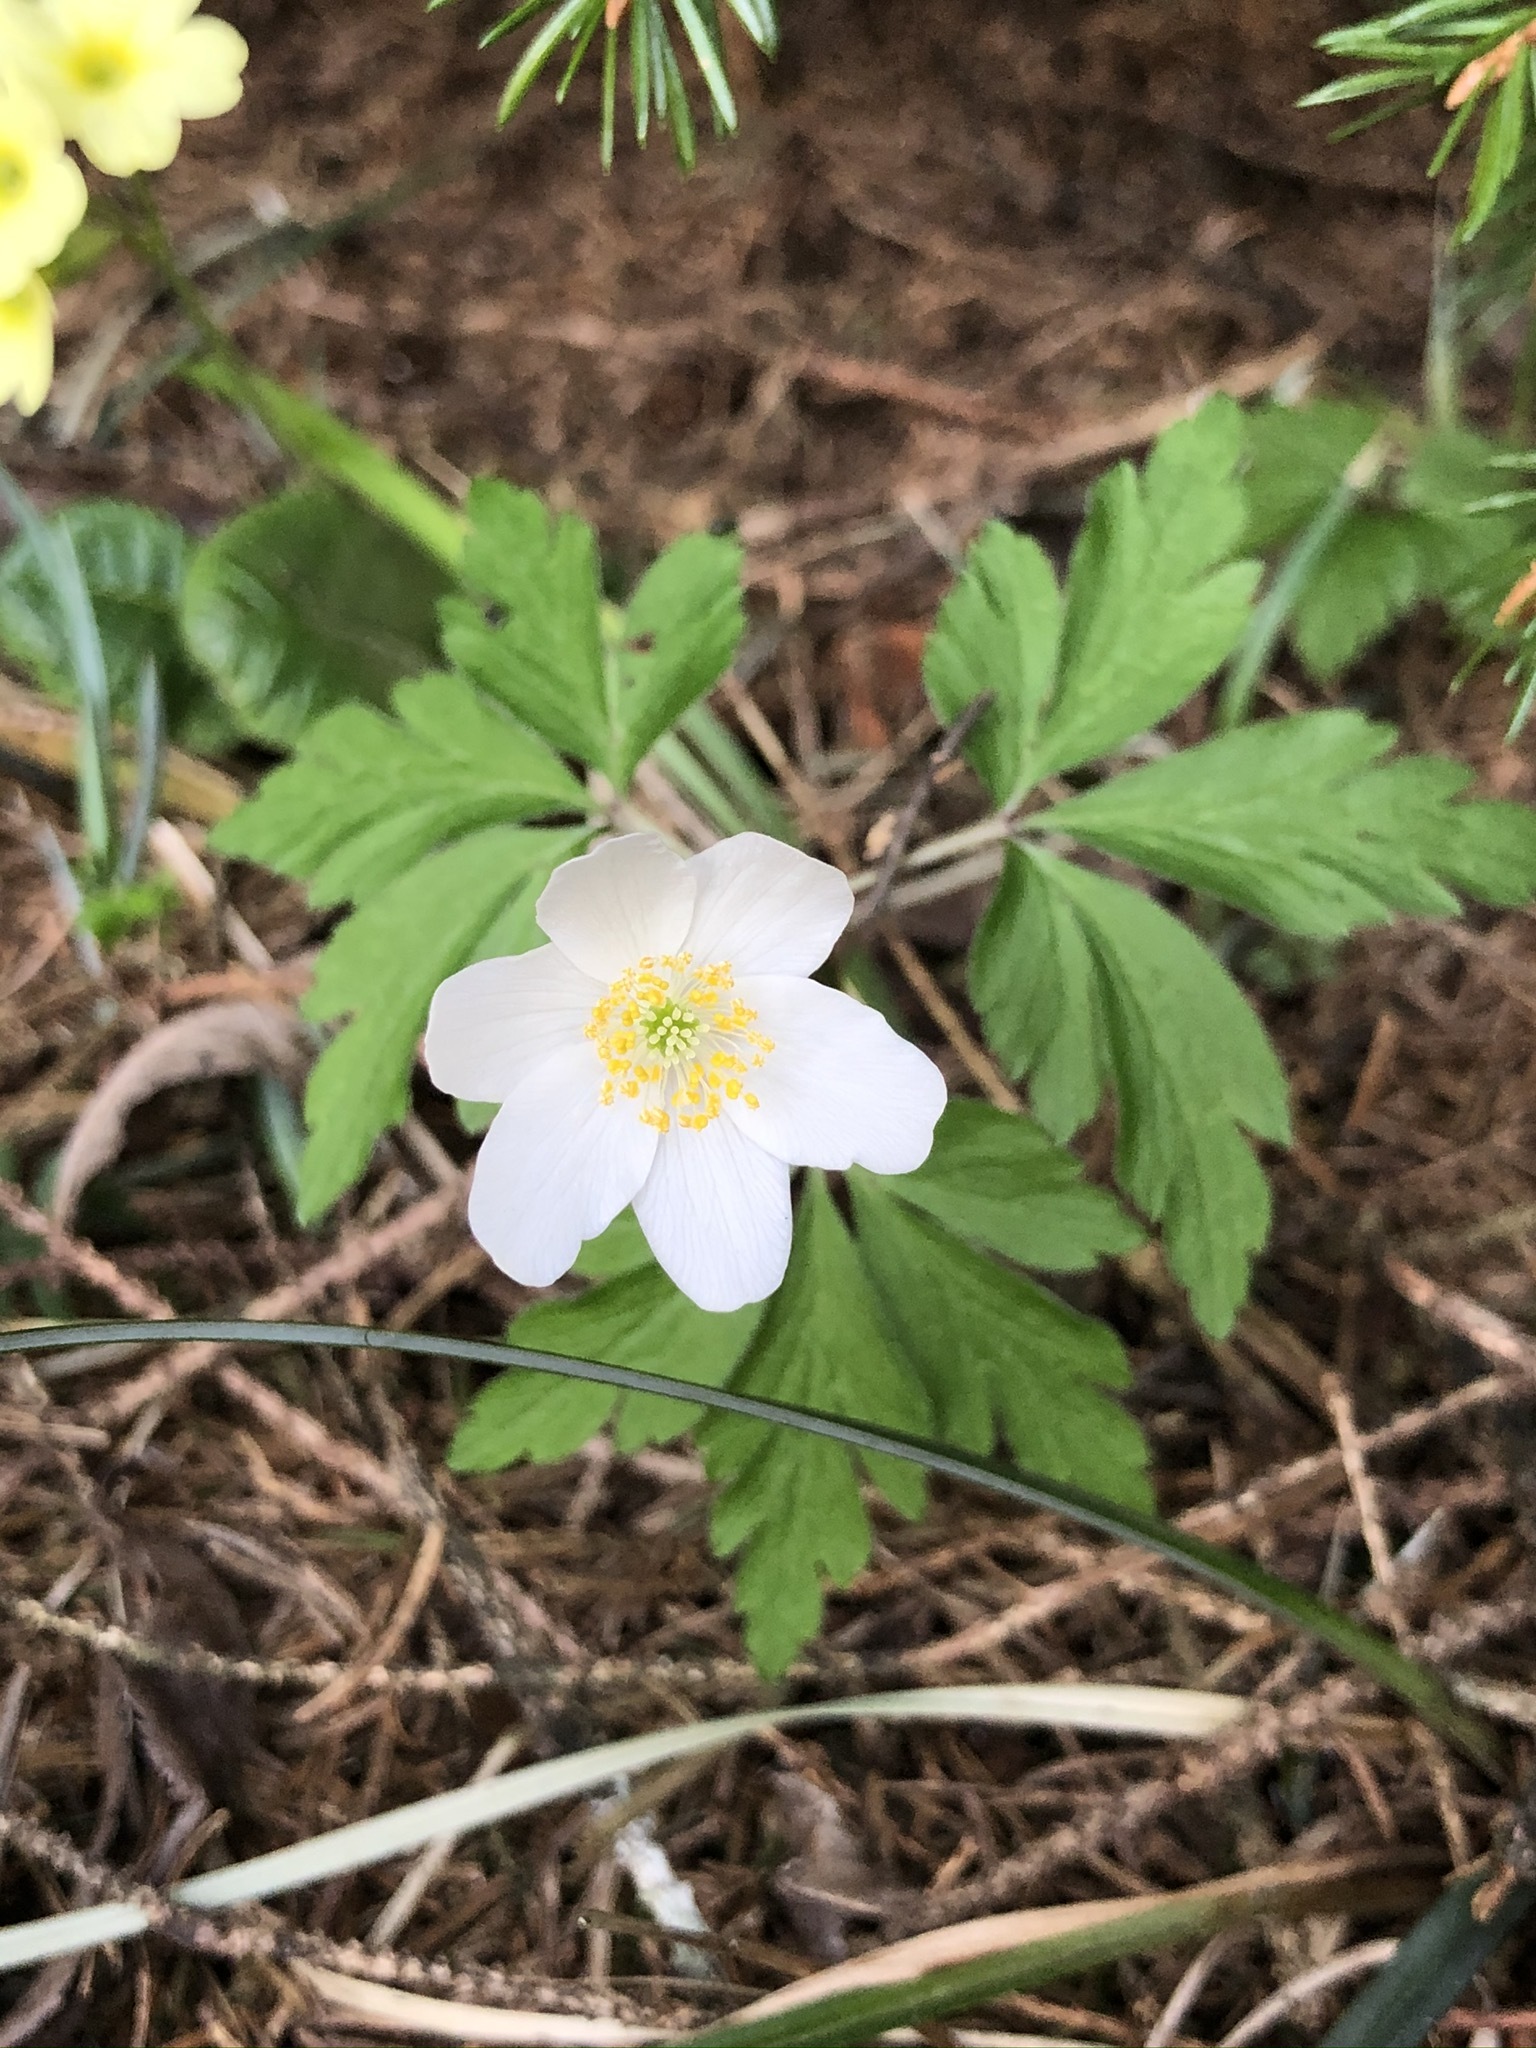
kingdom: Plantae
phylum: Tracheophyta
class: Magnoliopsida
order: Ranunculales
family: Ranunculaceae
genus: Anemone
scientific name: Anemone nemorosa
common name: Wood anemone
